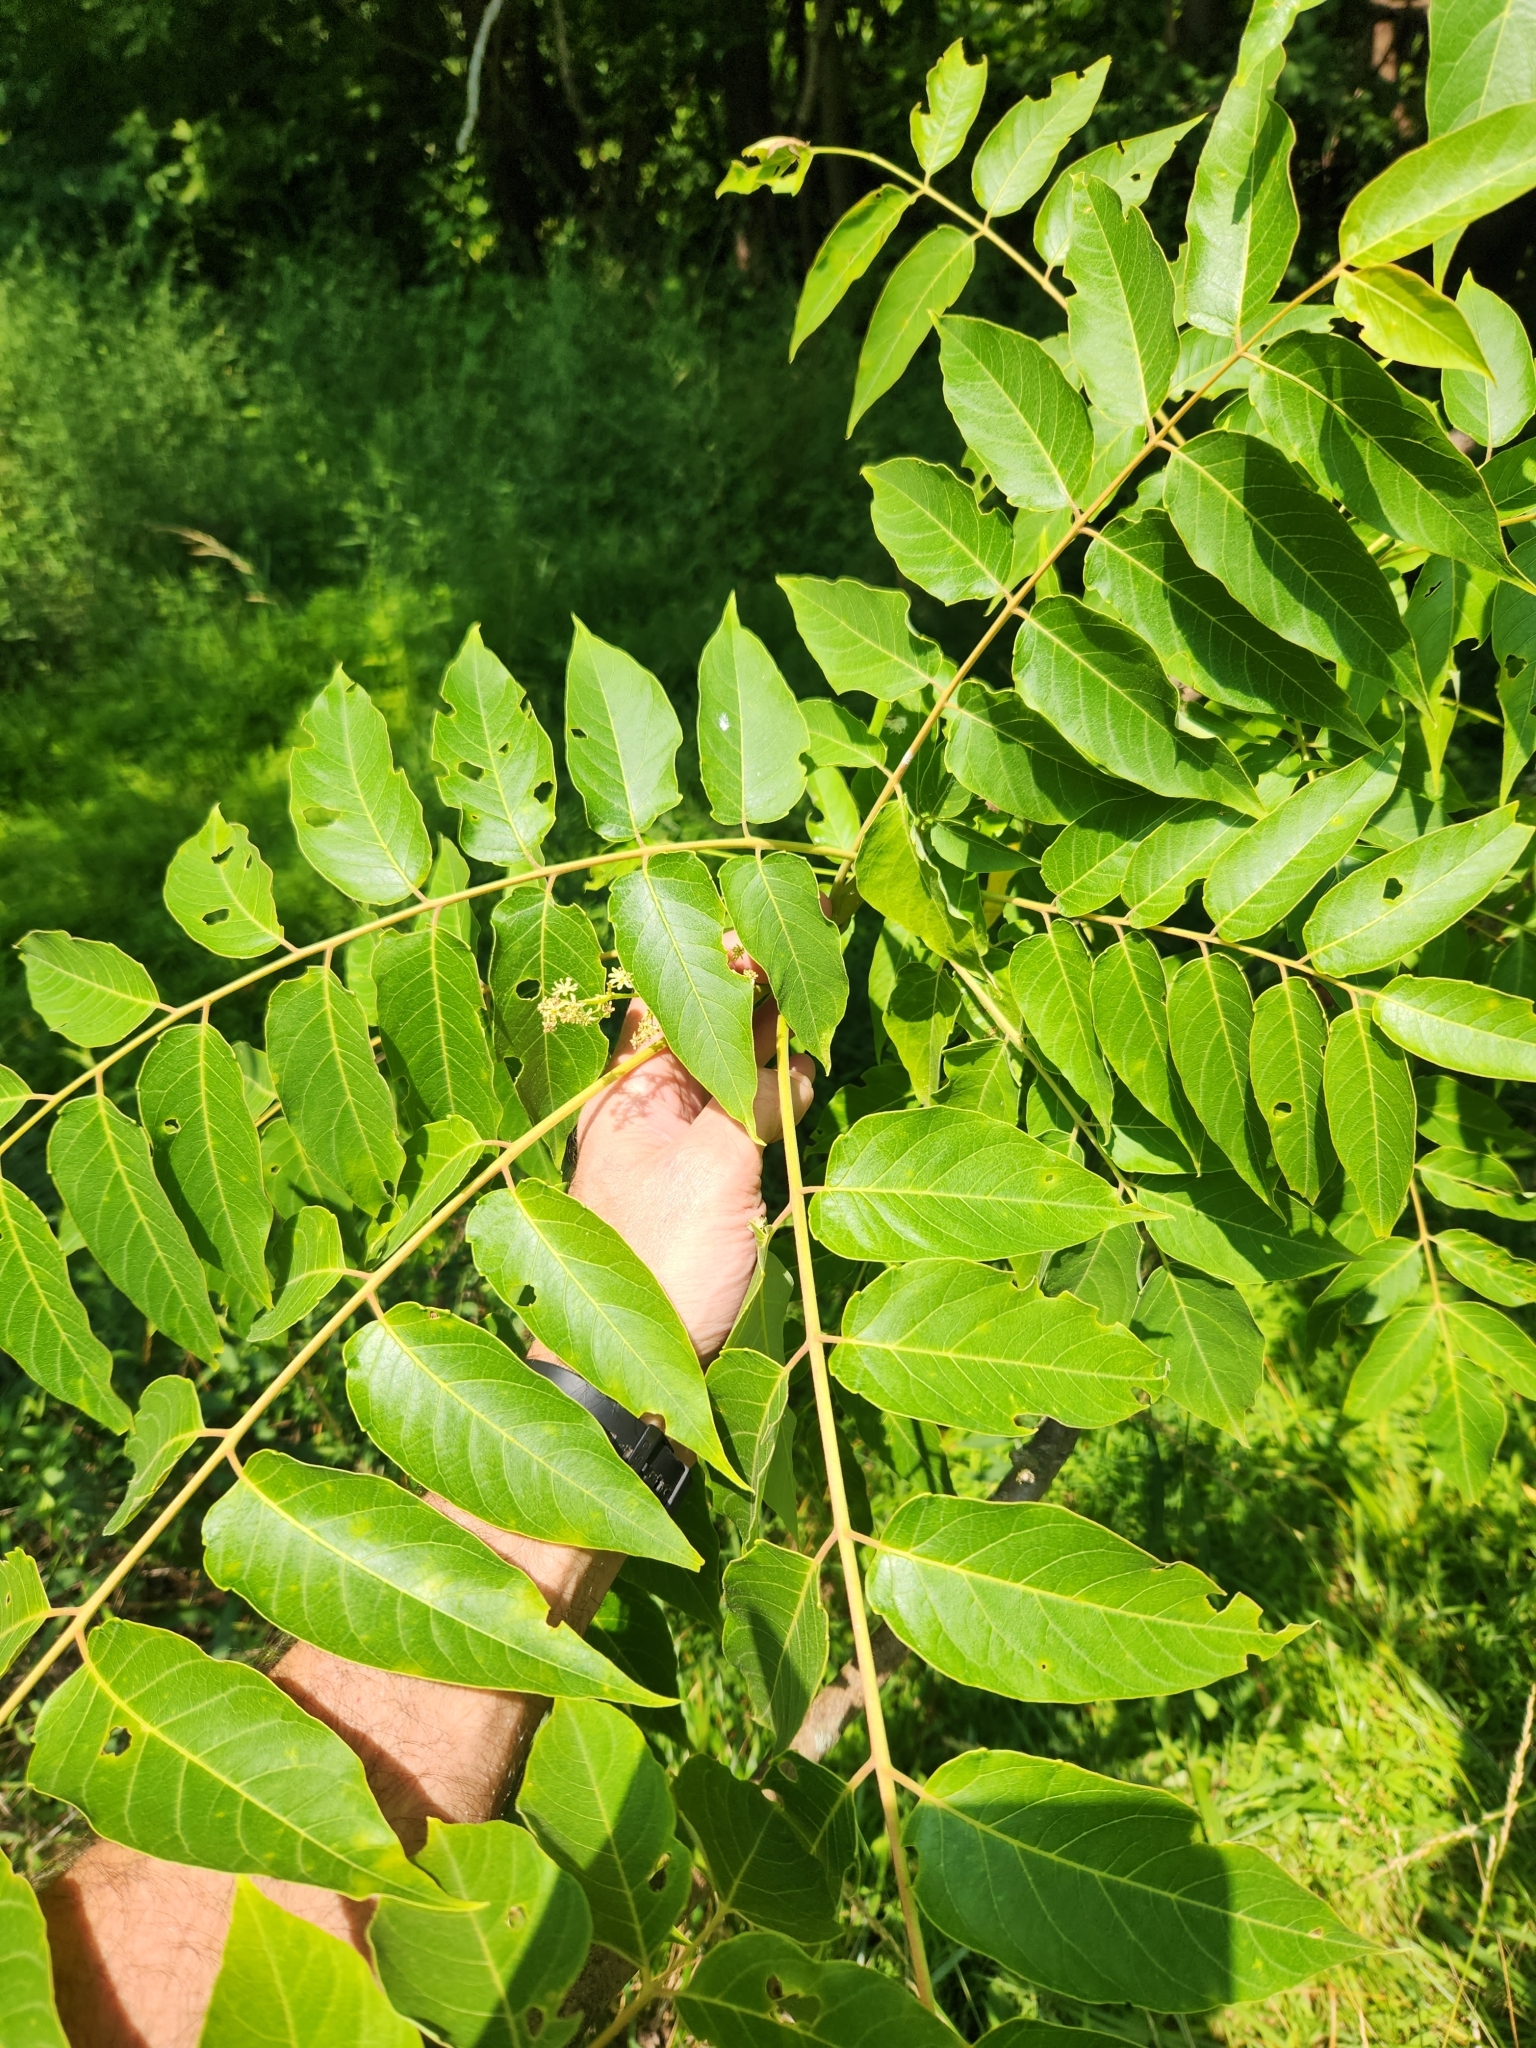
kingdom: Plantae
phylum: Tracheophyta
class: Magnoliopsida
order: Sapindales
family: Simaroubaceae
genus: Ailanthus
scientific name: Ailanthus altissima
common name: Tree-of-heaven
